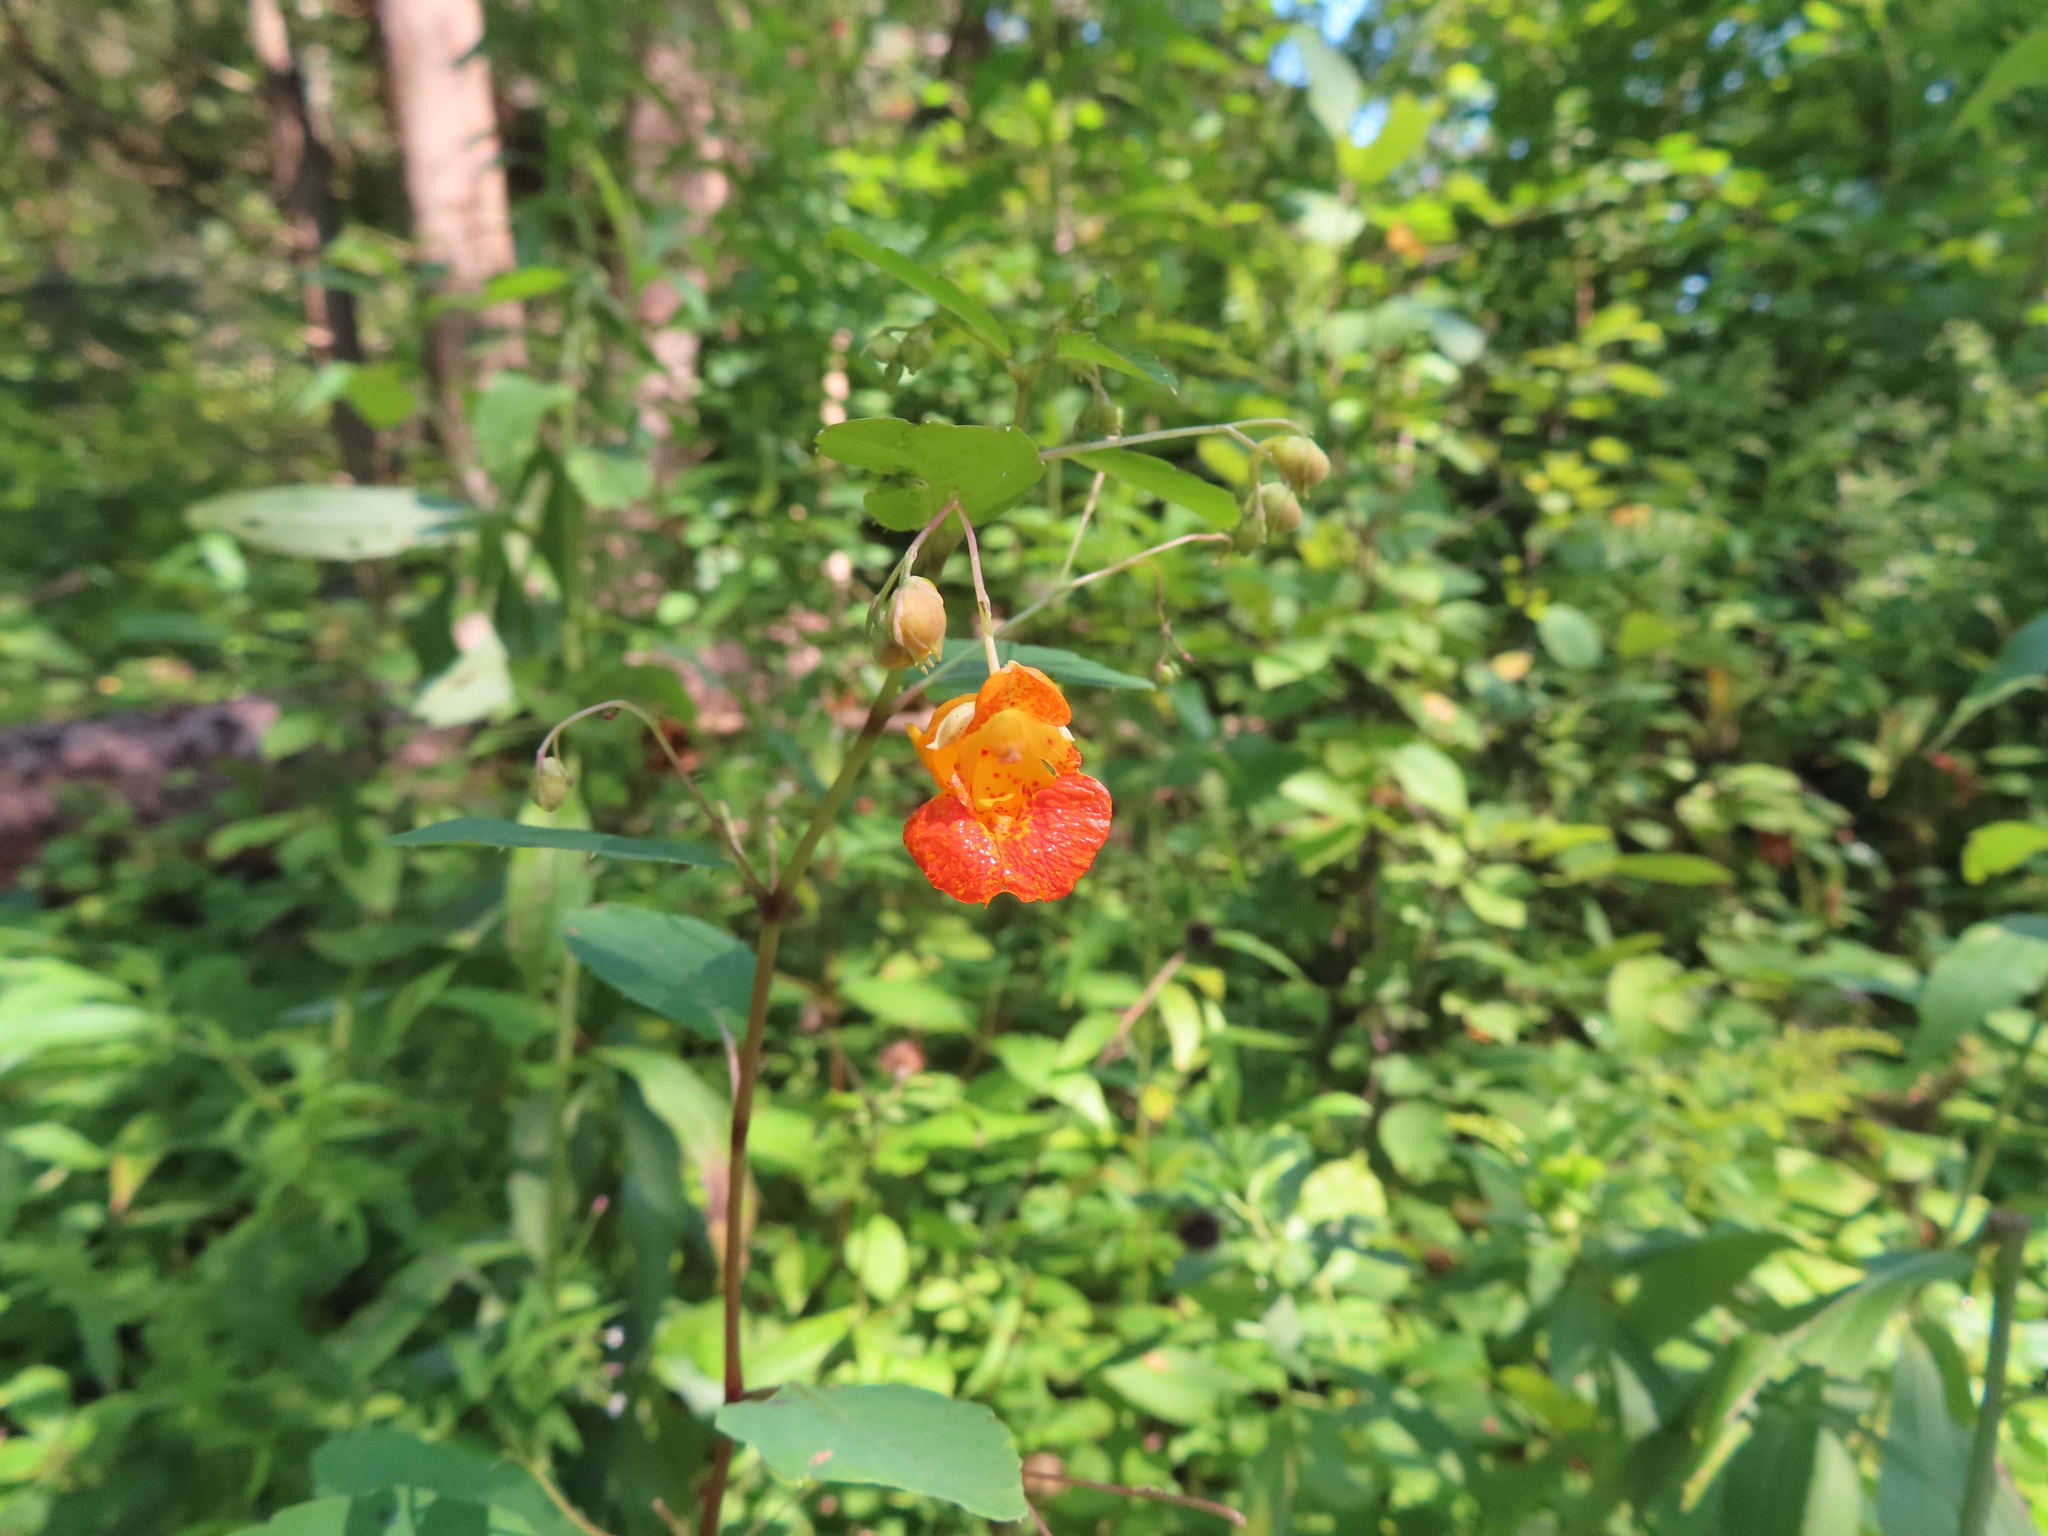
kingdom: Plantae
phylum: Tracheophyta
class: Magnoliopsida
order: Ericales
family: Balsaminaceae
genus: Impatiens
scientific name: Impatiens capensis
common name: Orange balsam
